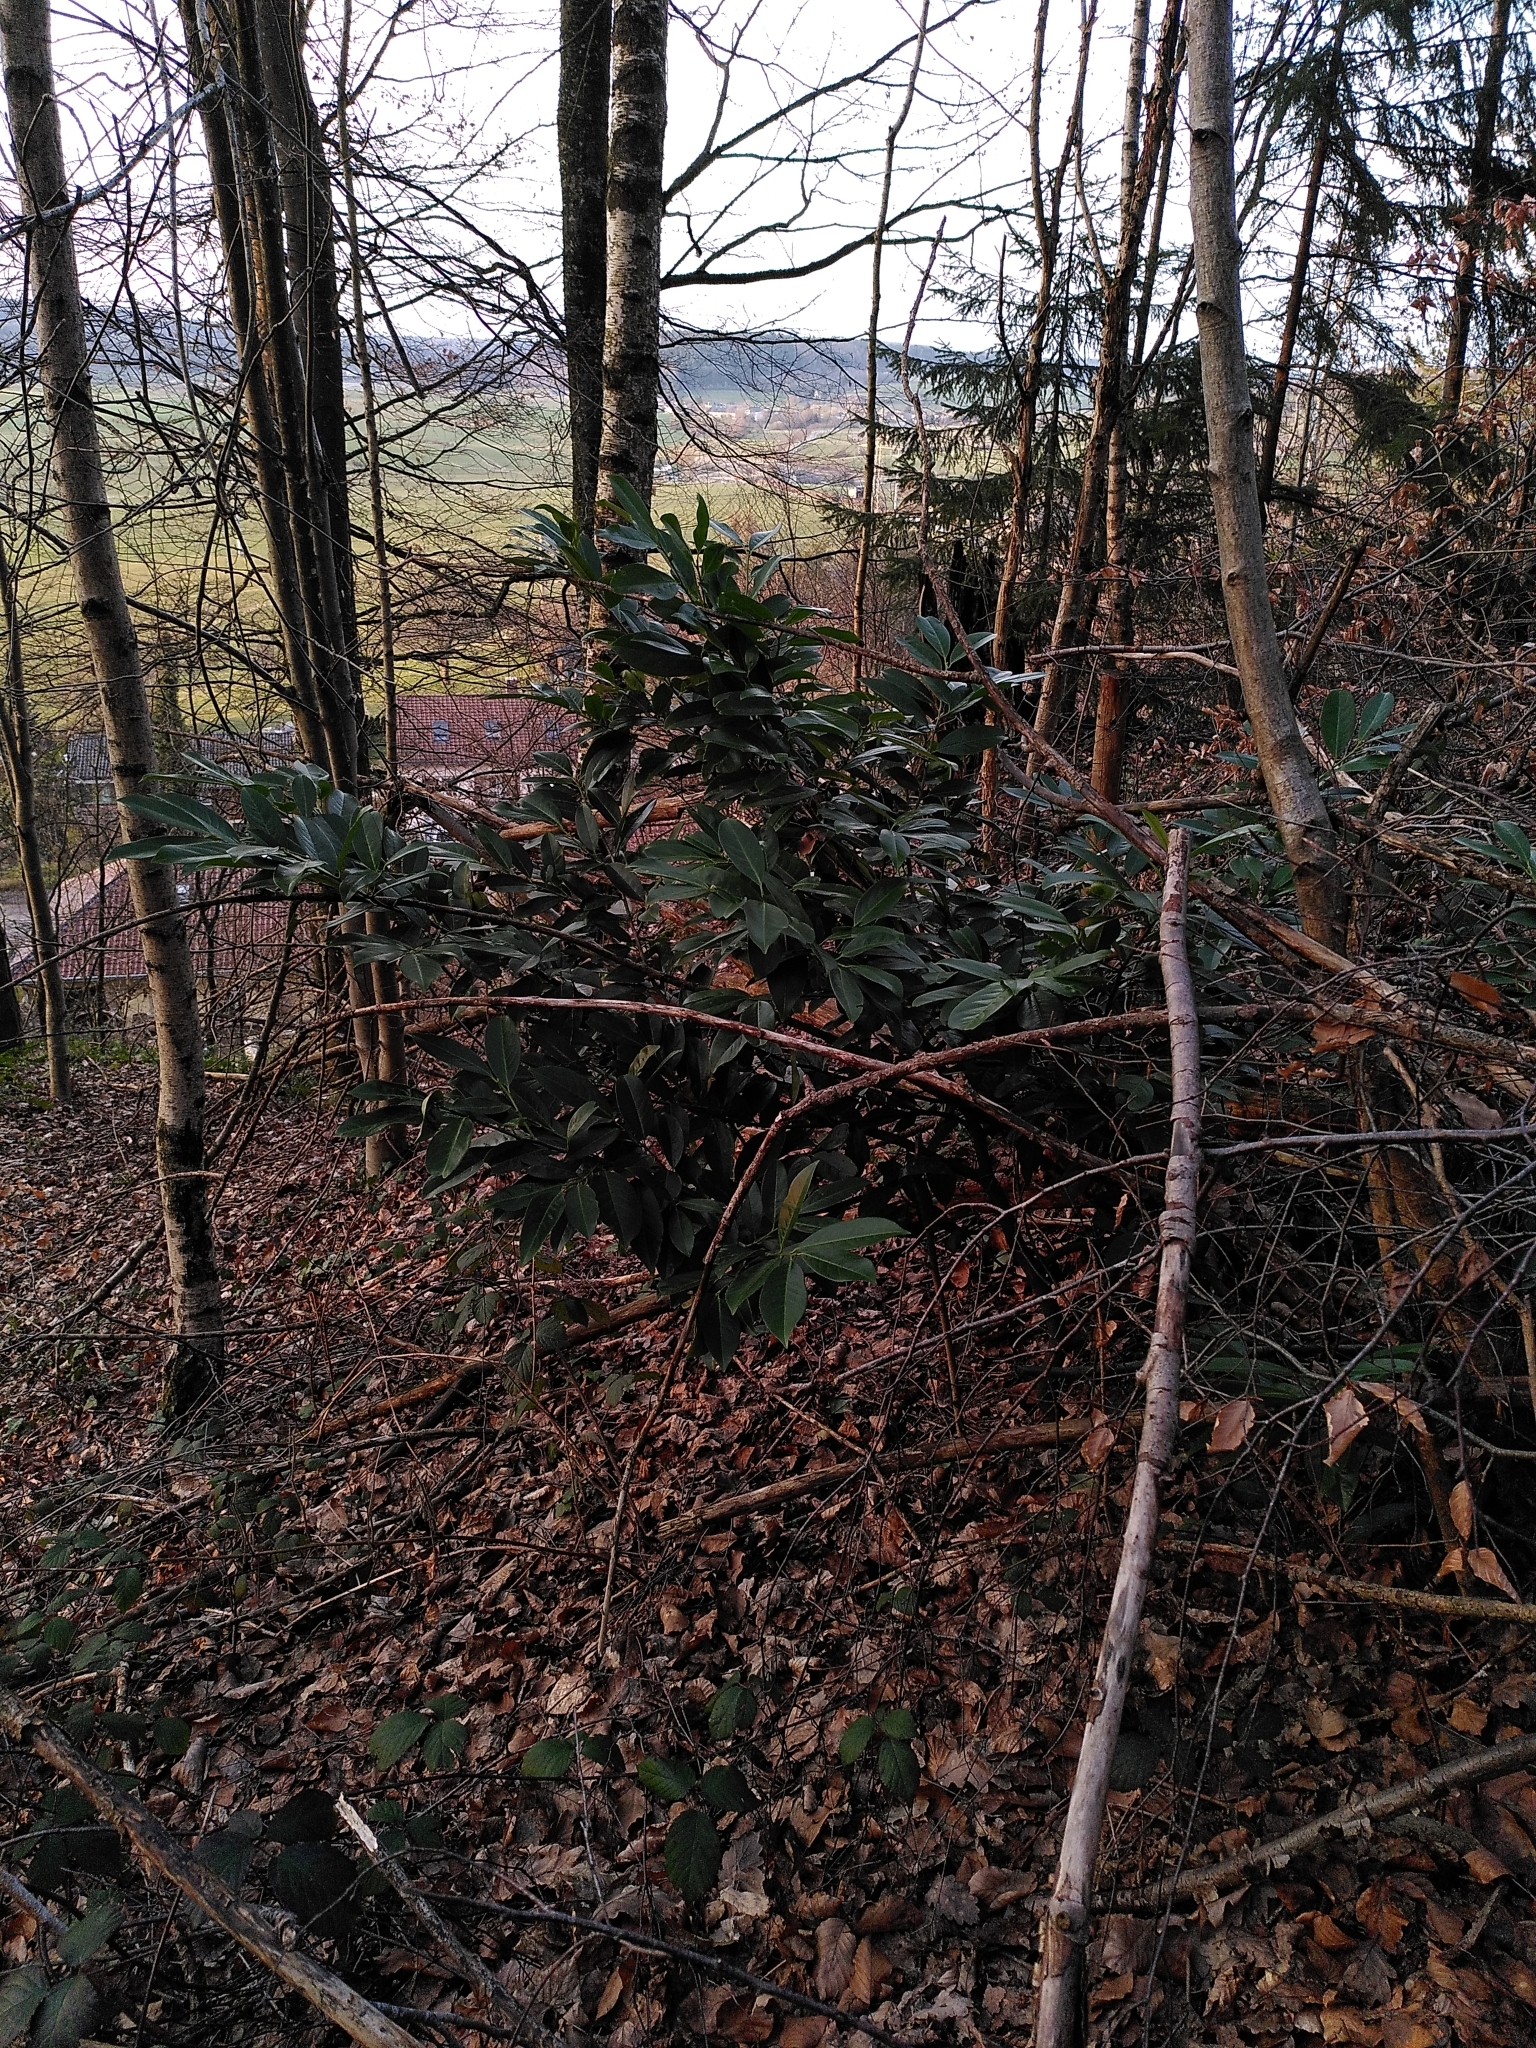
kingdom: Plantae
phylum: Tracheophyta
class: Magnoliopsida
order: Rosales
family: Rosaceae
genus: Prunus
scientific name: Prunus laurocerasus
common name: Cherry laurel
